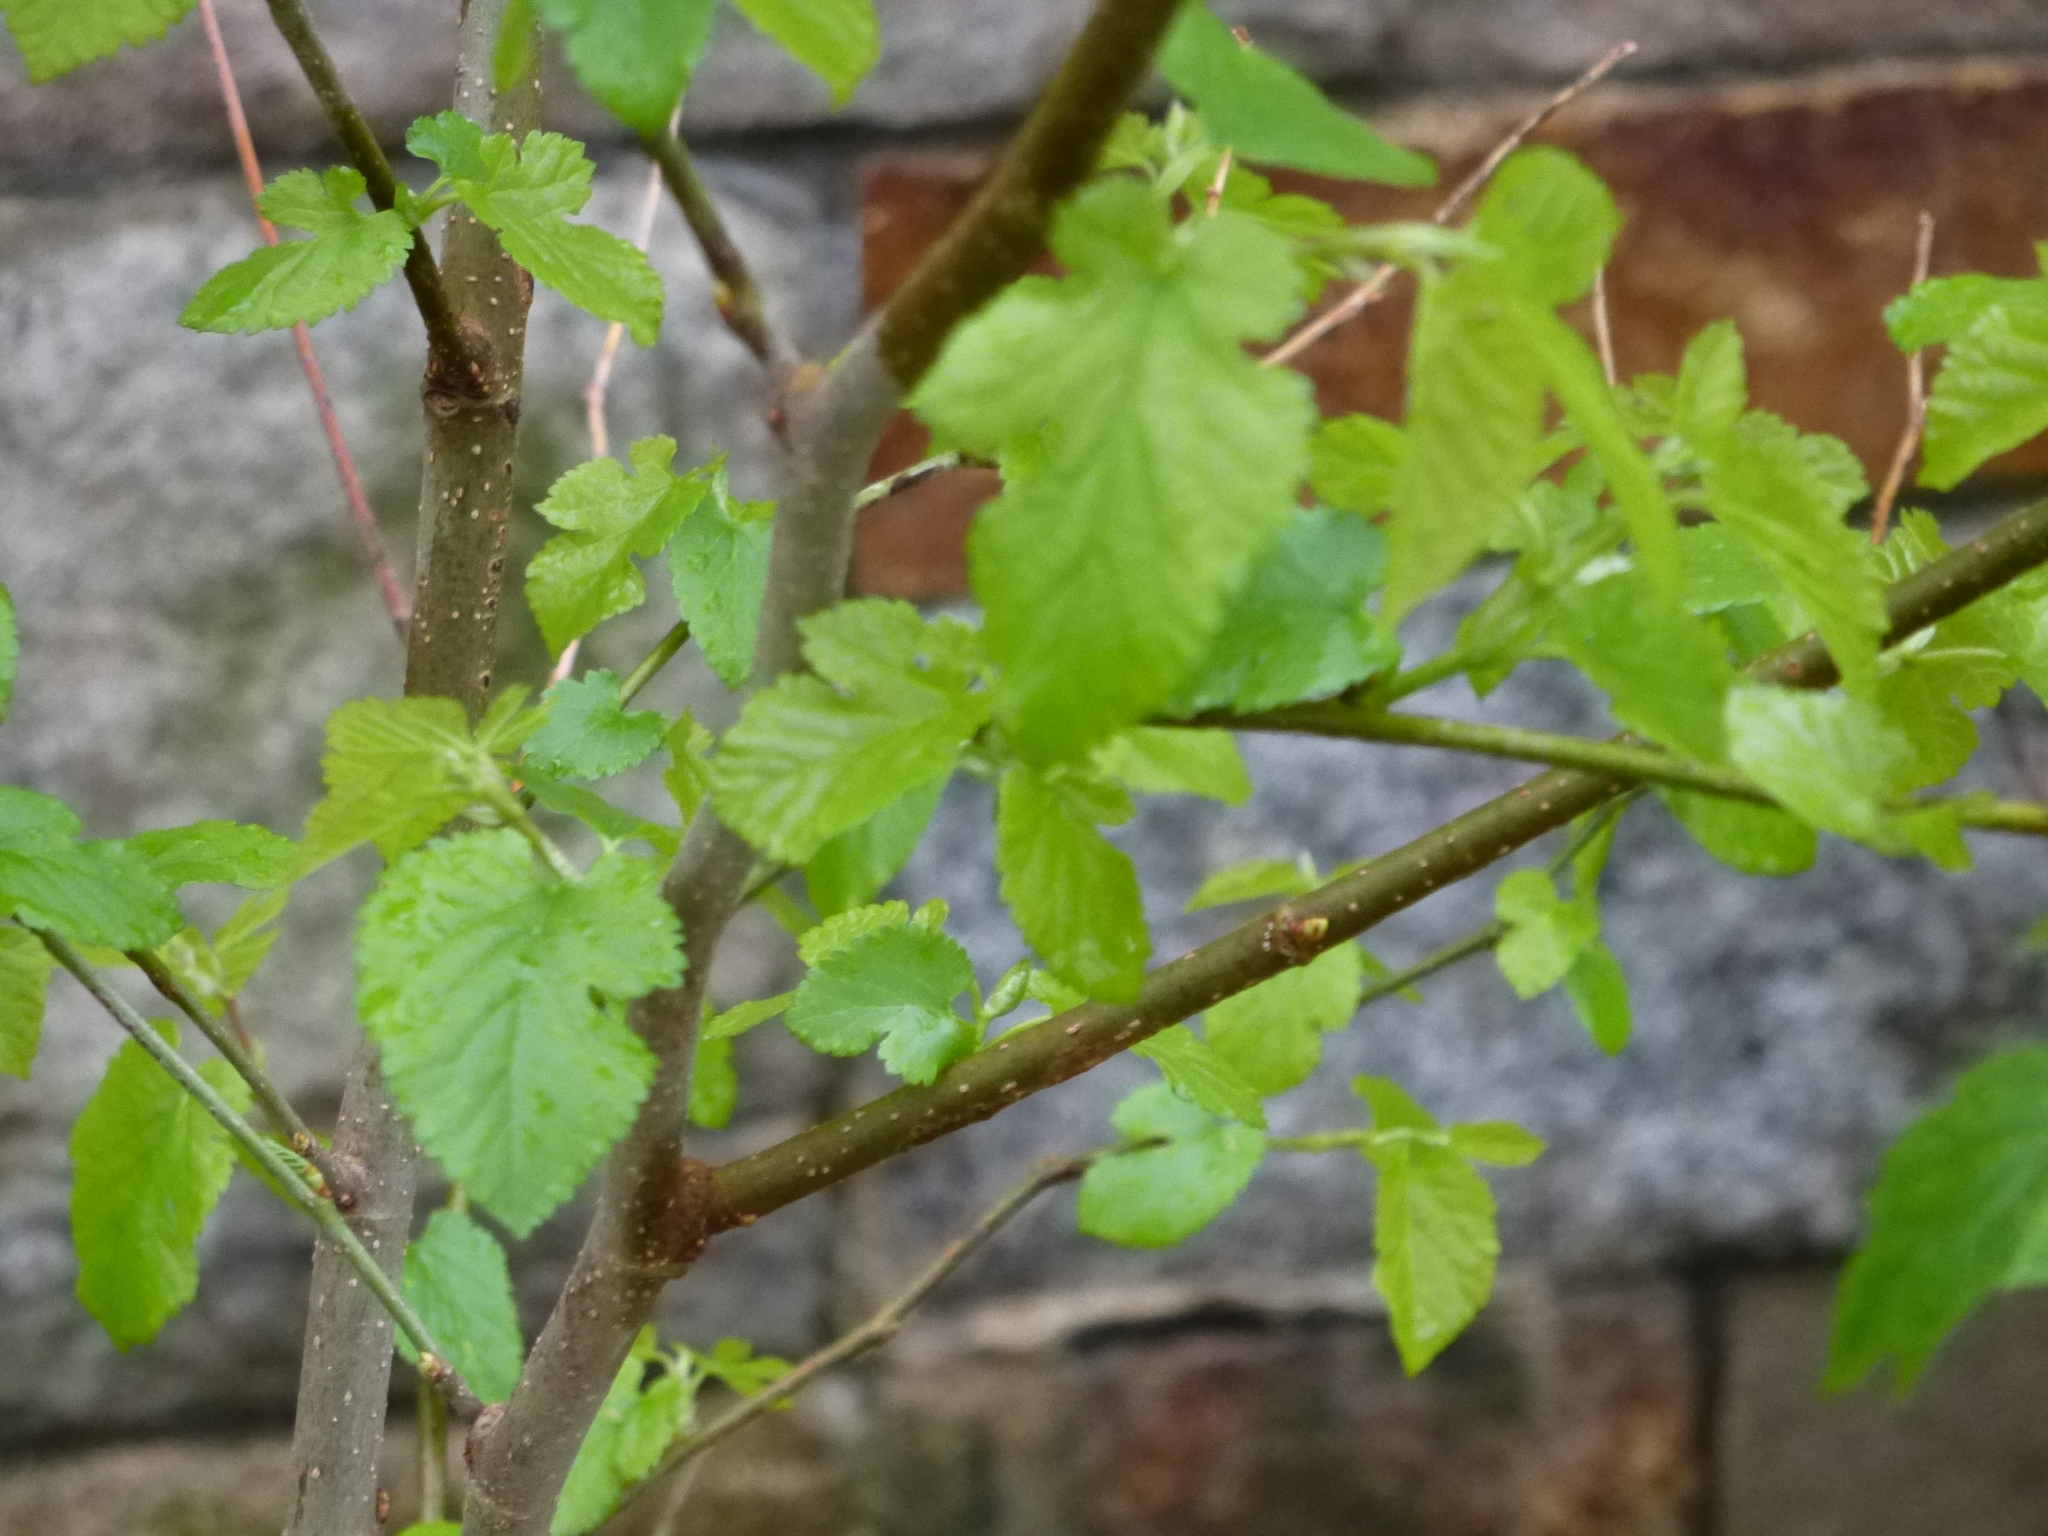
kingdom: Plantae
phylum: Tracheophyta
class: Magnoliopsida
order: Rosales
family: Moraceae
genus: Morus
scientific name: Morus alba
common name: White mulberry
